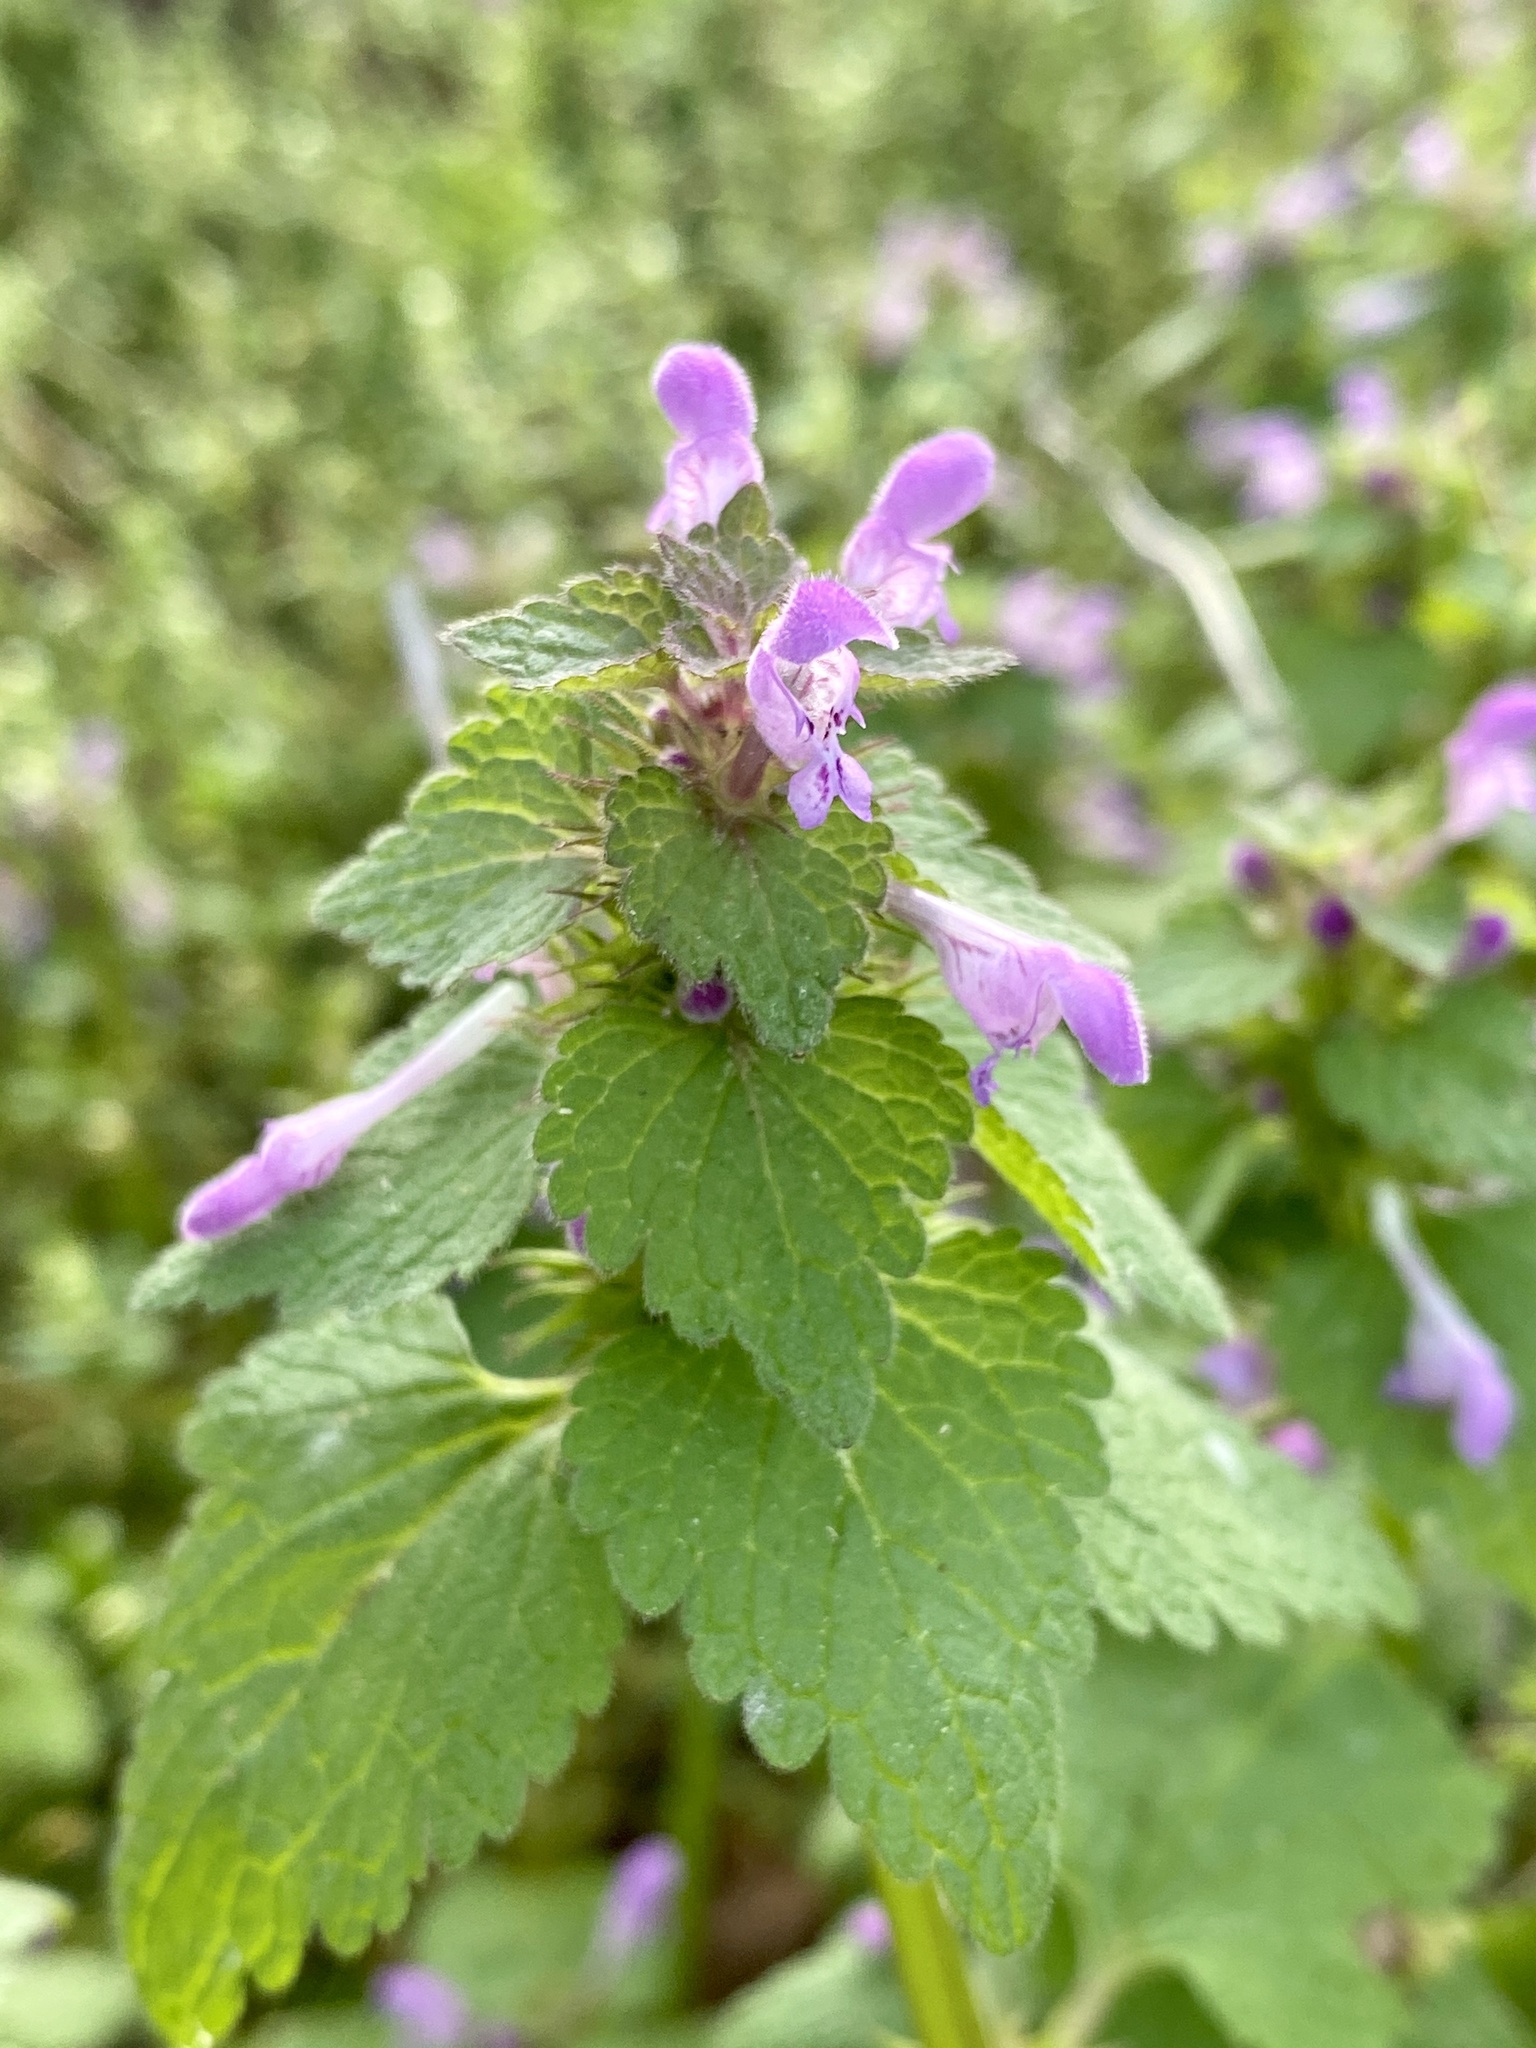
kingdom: Plantae
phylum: Tracheophyta
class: Magnoliopsida
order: Lamiales
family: Lamiaceae
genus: Lamium
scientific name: Lamium purpureum
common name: Red dead-nettle
